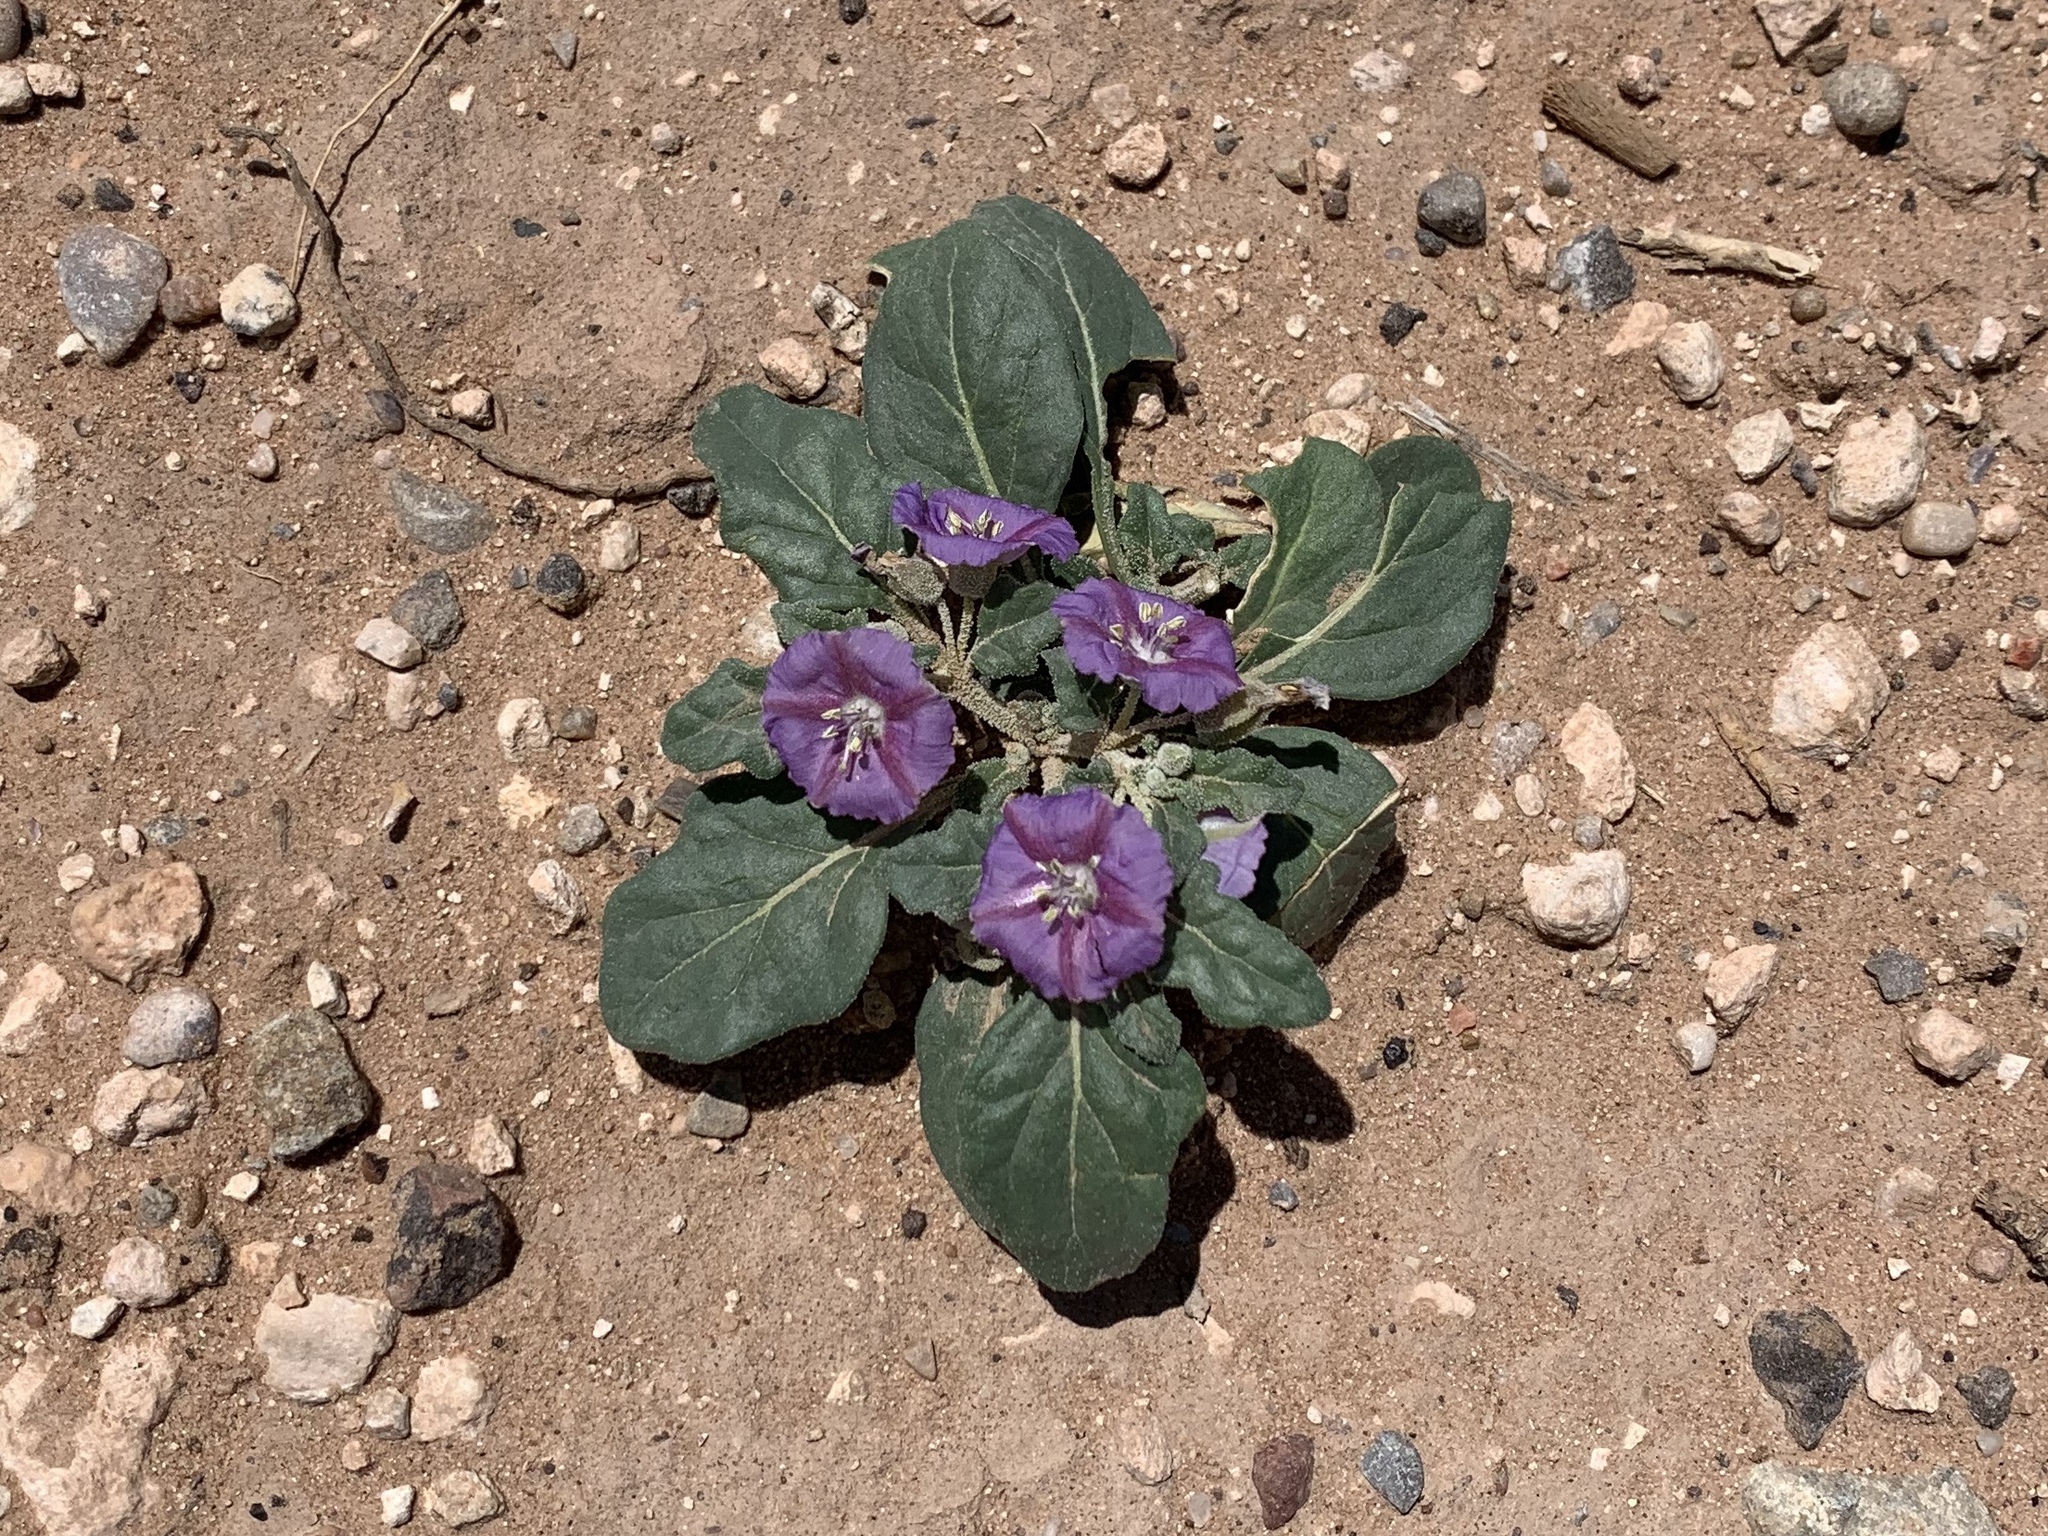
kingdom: Plantae
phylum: Tracheophyta
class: Magnoliopsida
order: Solanales
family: Solanaceae
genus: Quincula
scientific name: Quincula lobata
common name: Purple-ground-cherry
